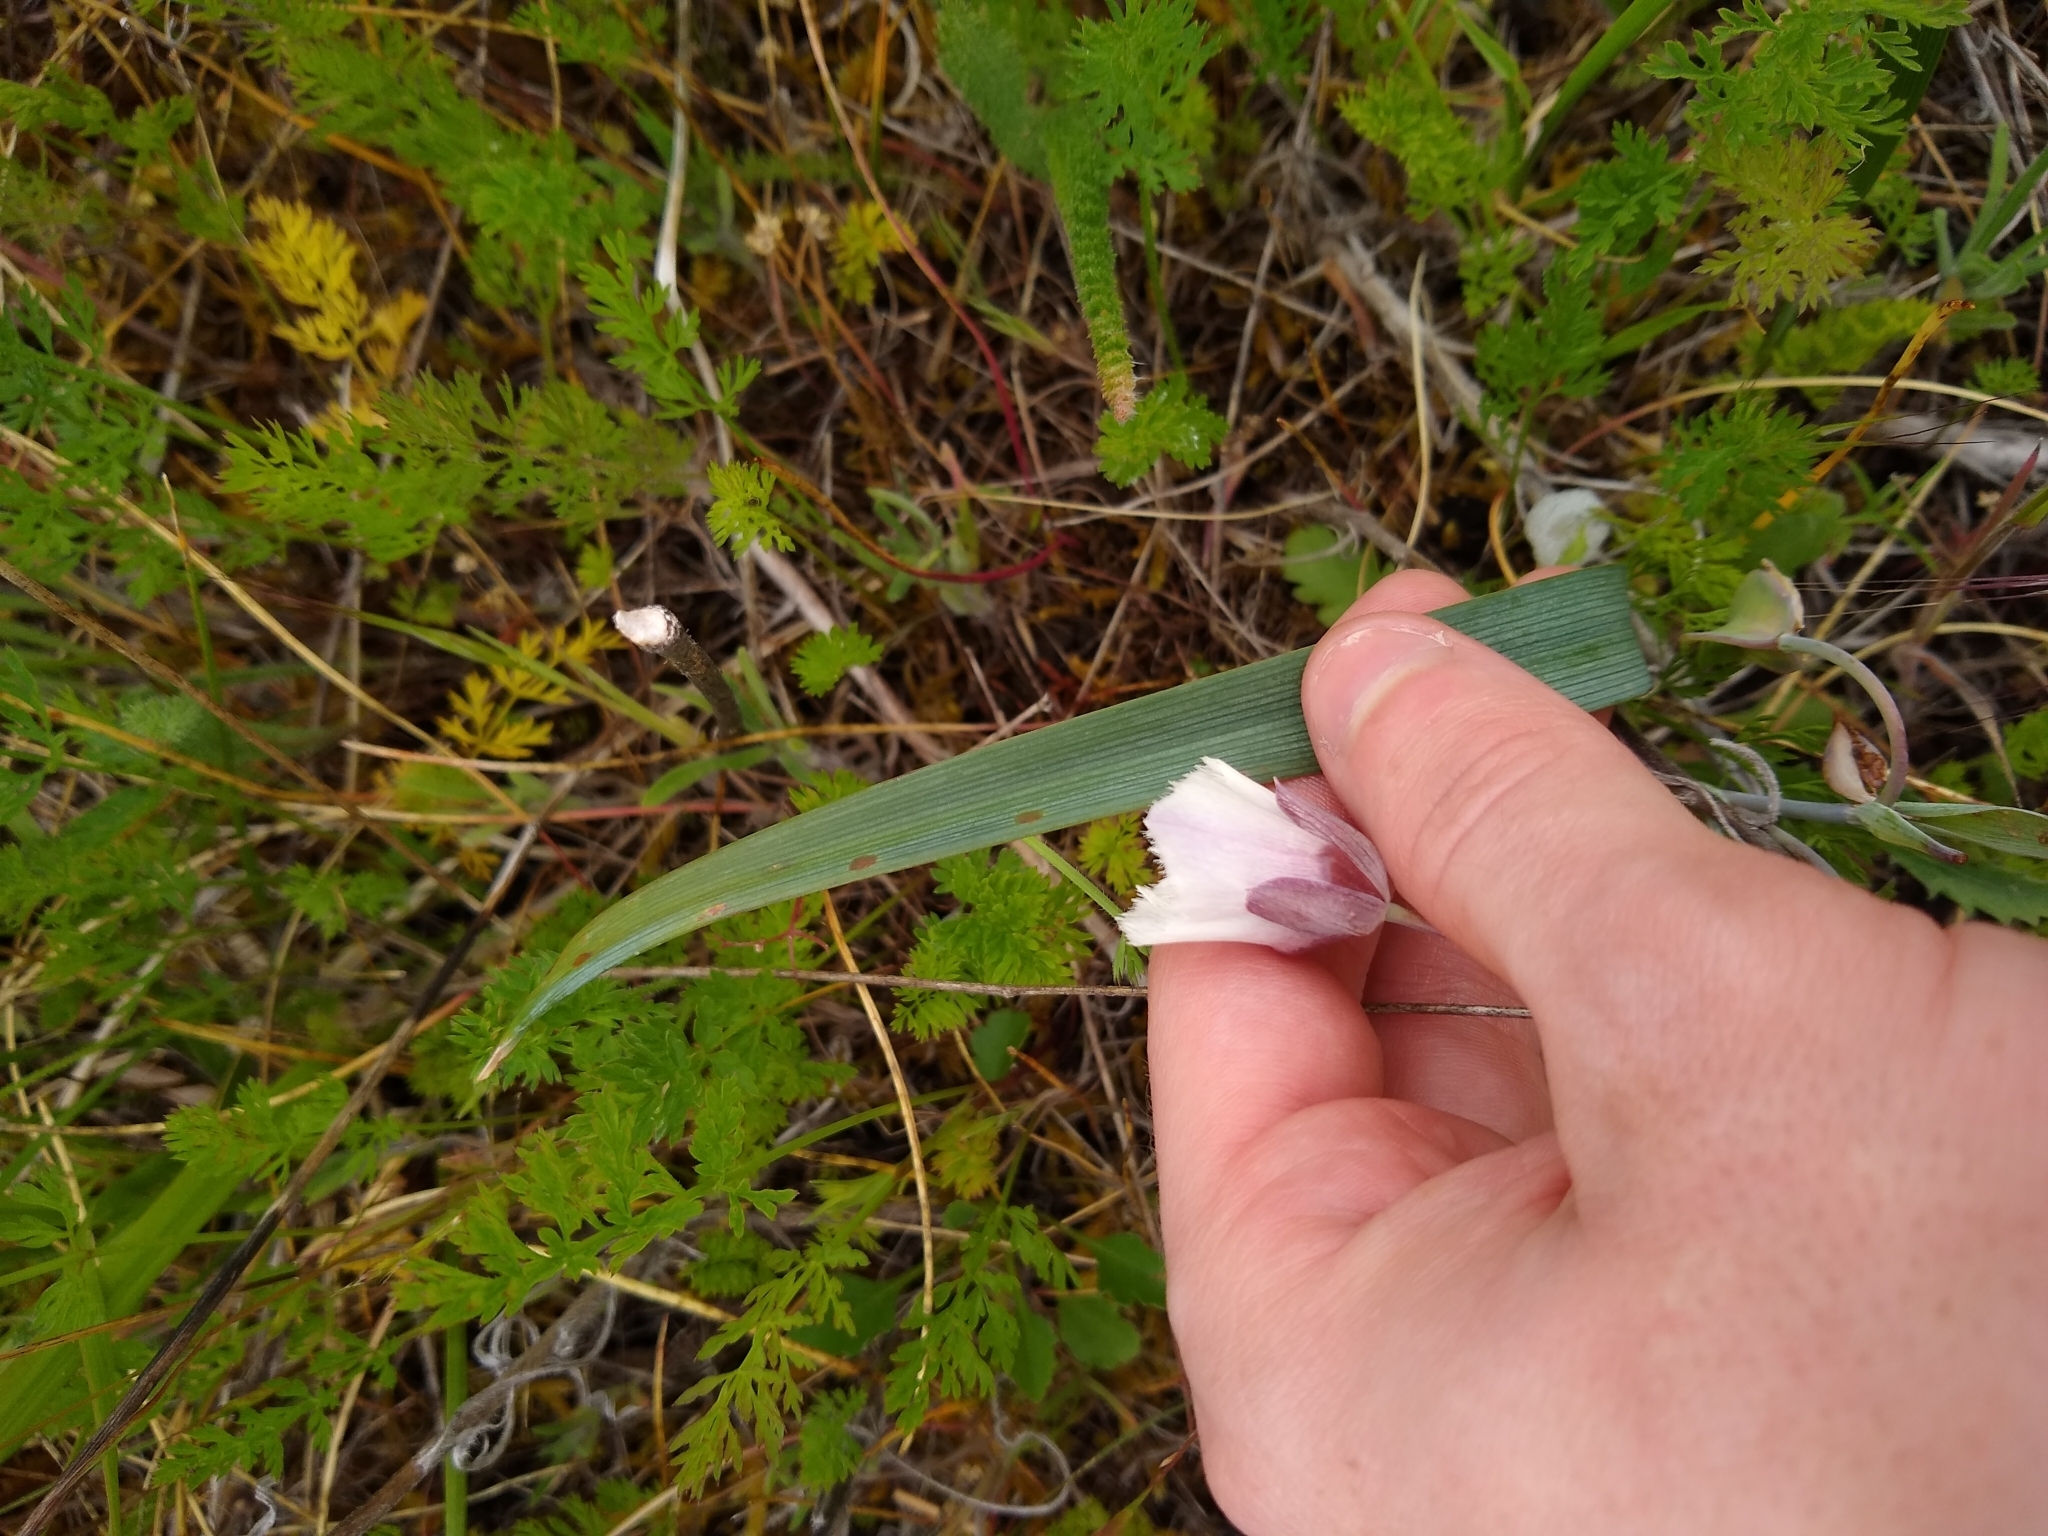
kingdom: Plantae
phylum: Tracheophyta
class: Liliopsida
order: Liliales
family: Liliaceae
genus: Calochortus
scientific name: Calochortus tolmiei
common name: Pussy-ears
